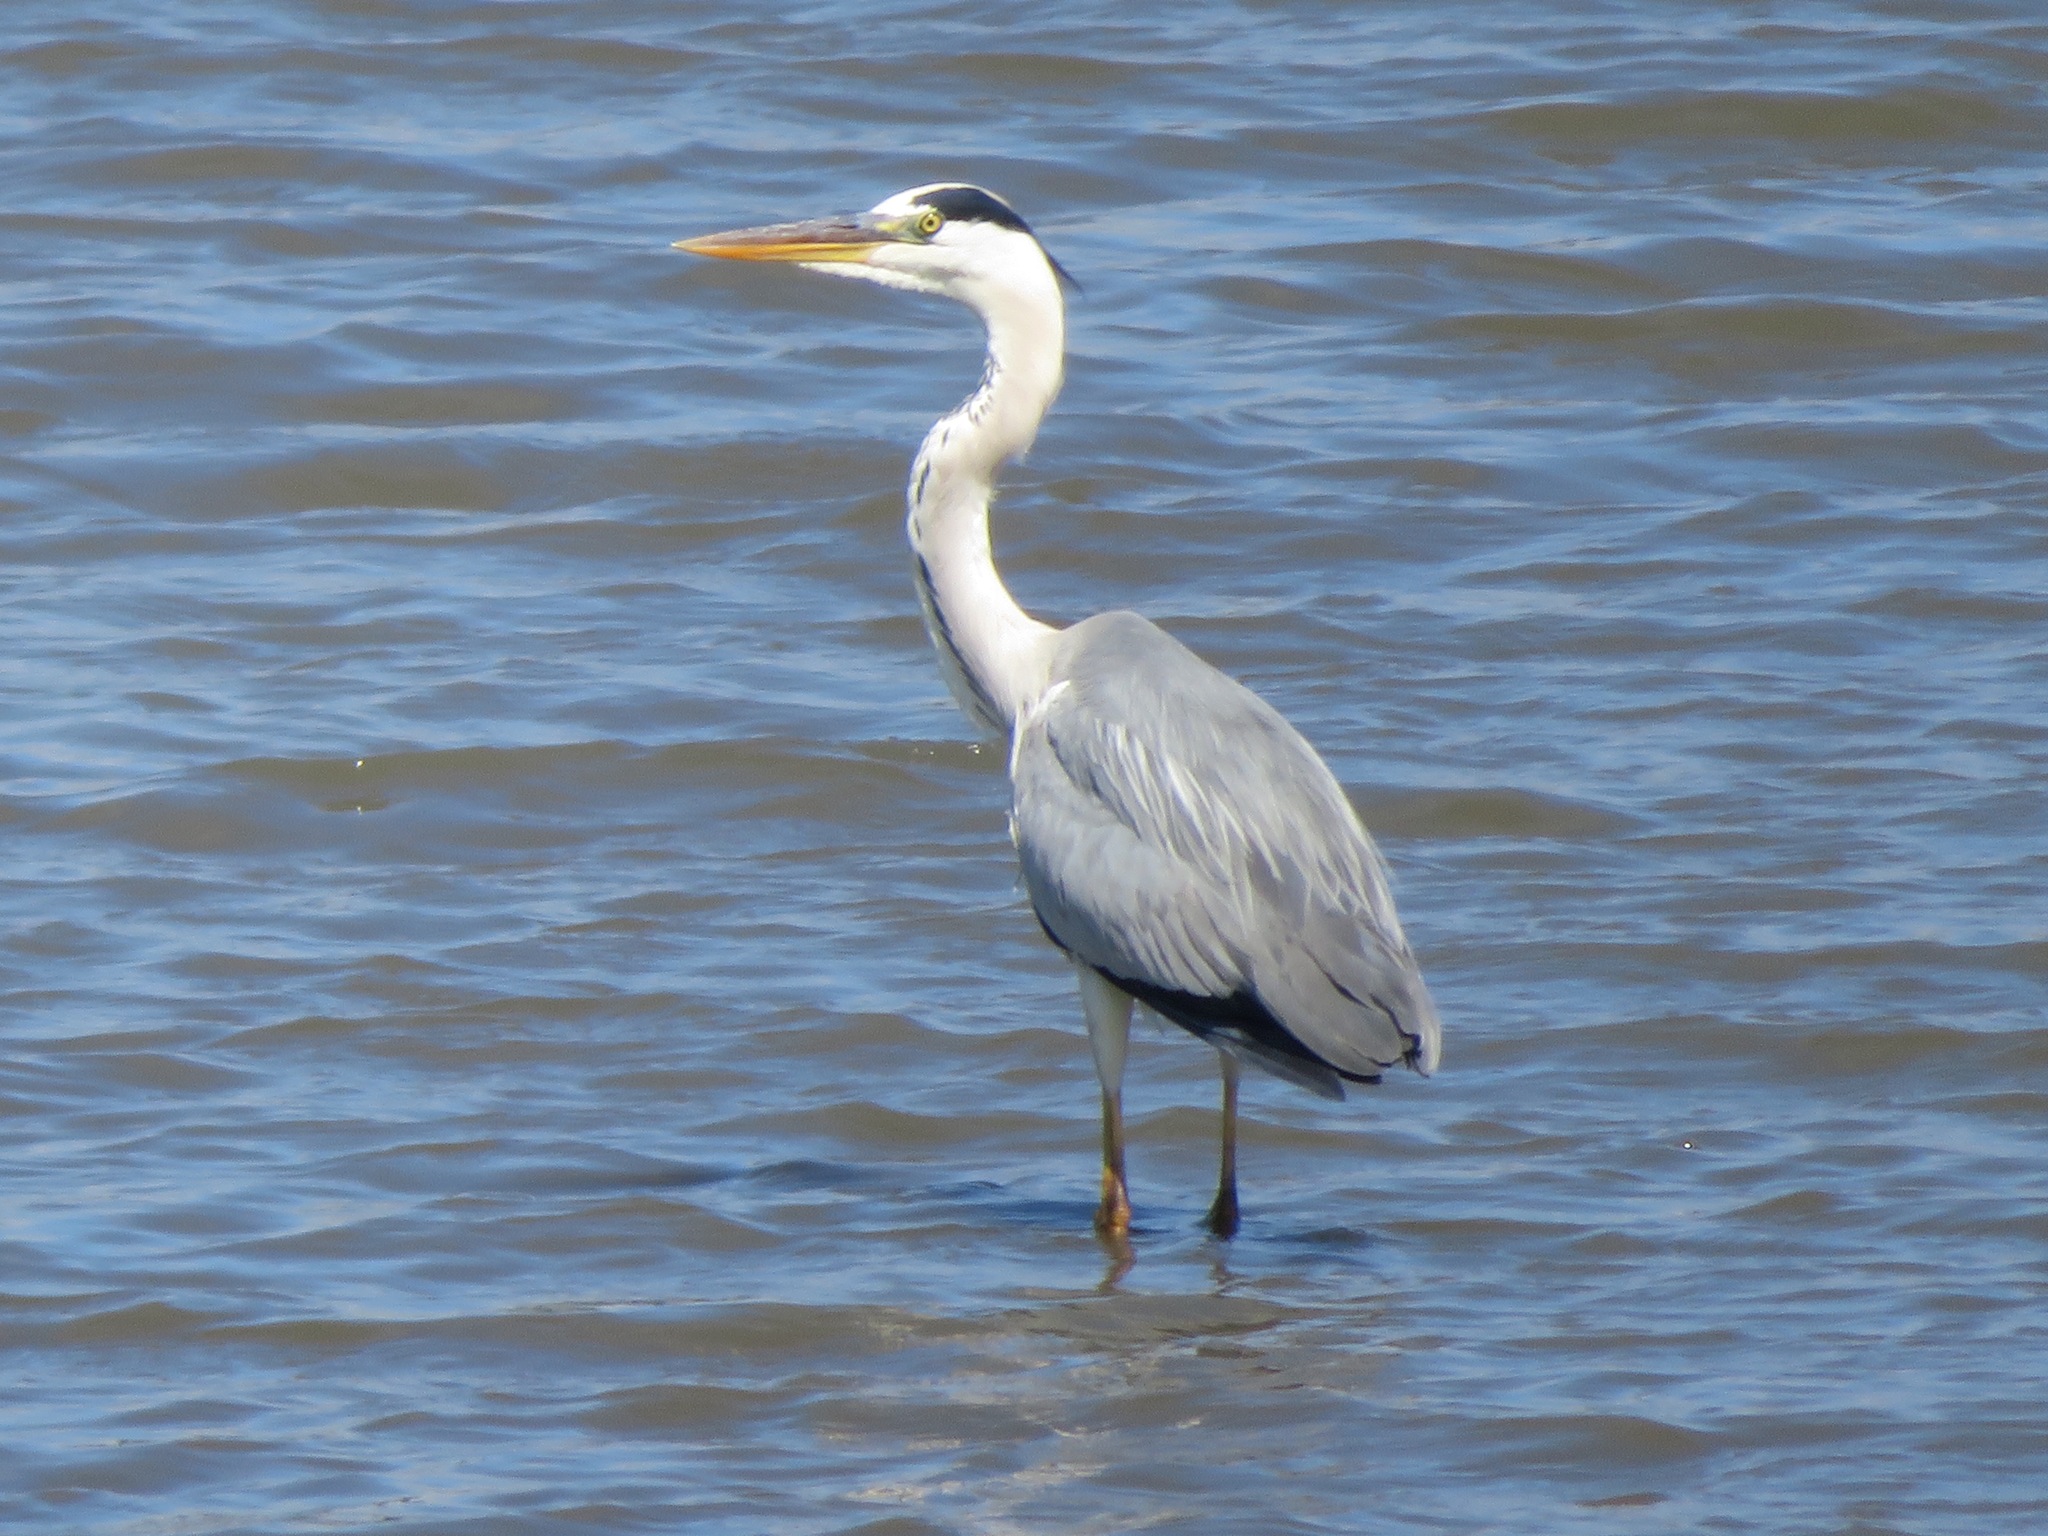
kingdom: Animalia
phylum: Chordata
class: Aves
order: Pelecaniformes
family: Ardeidae
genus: Ardea
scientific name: Ardea cinerea
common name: Grey heron
